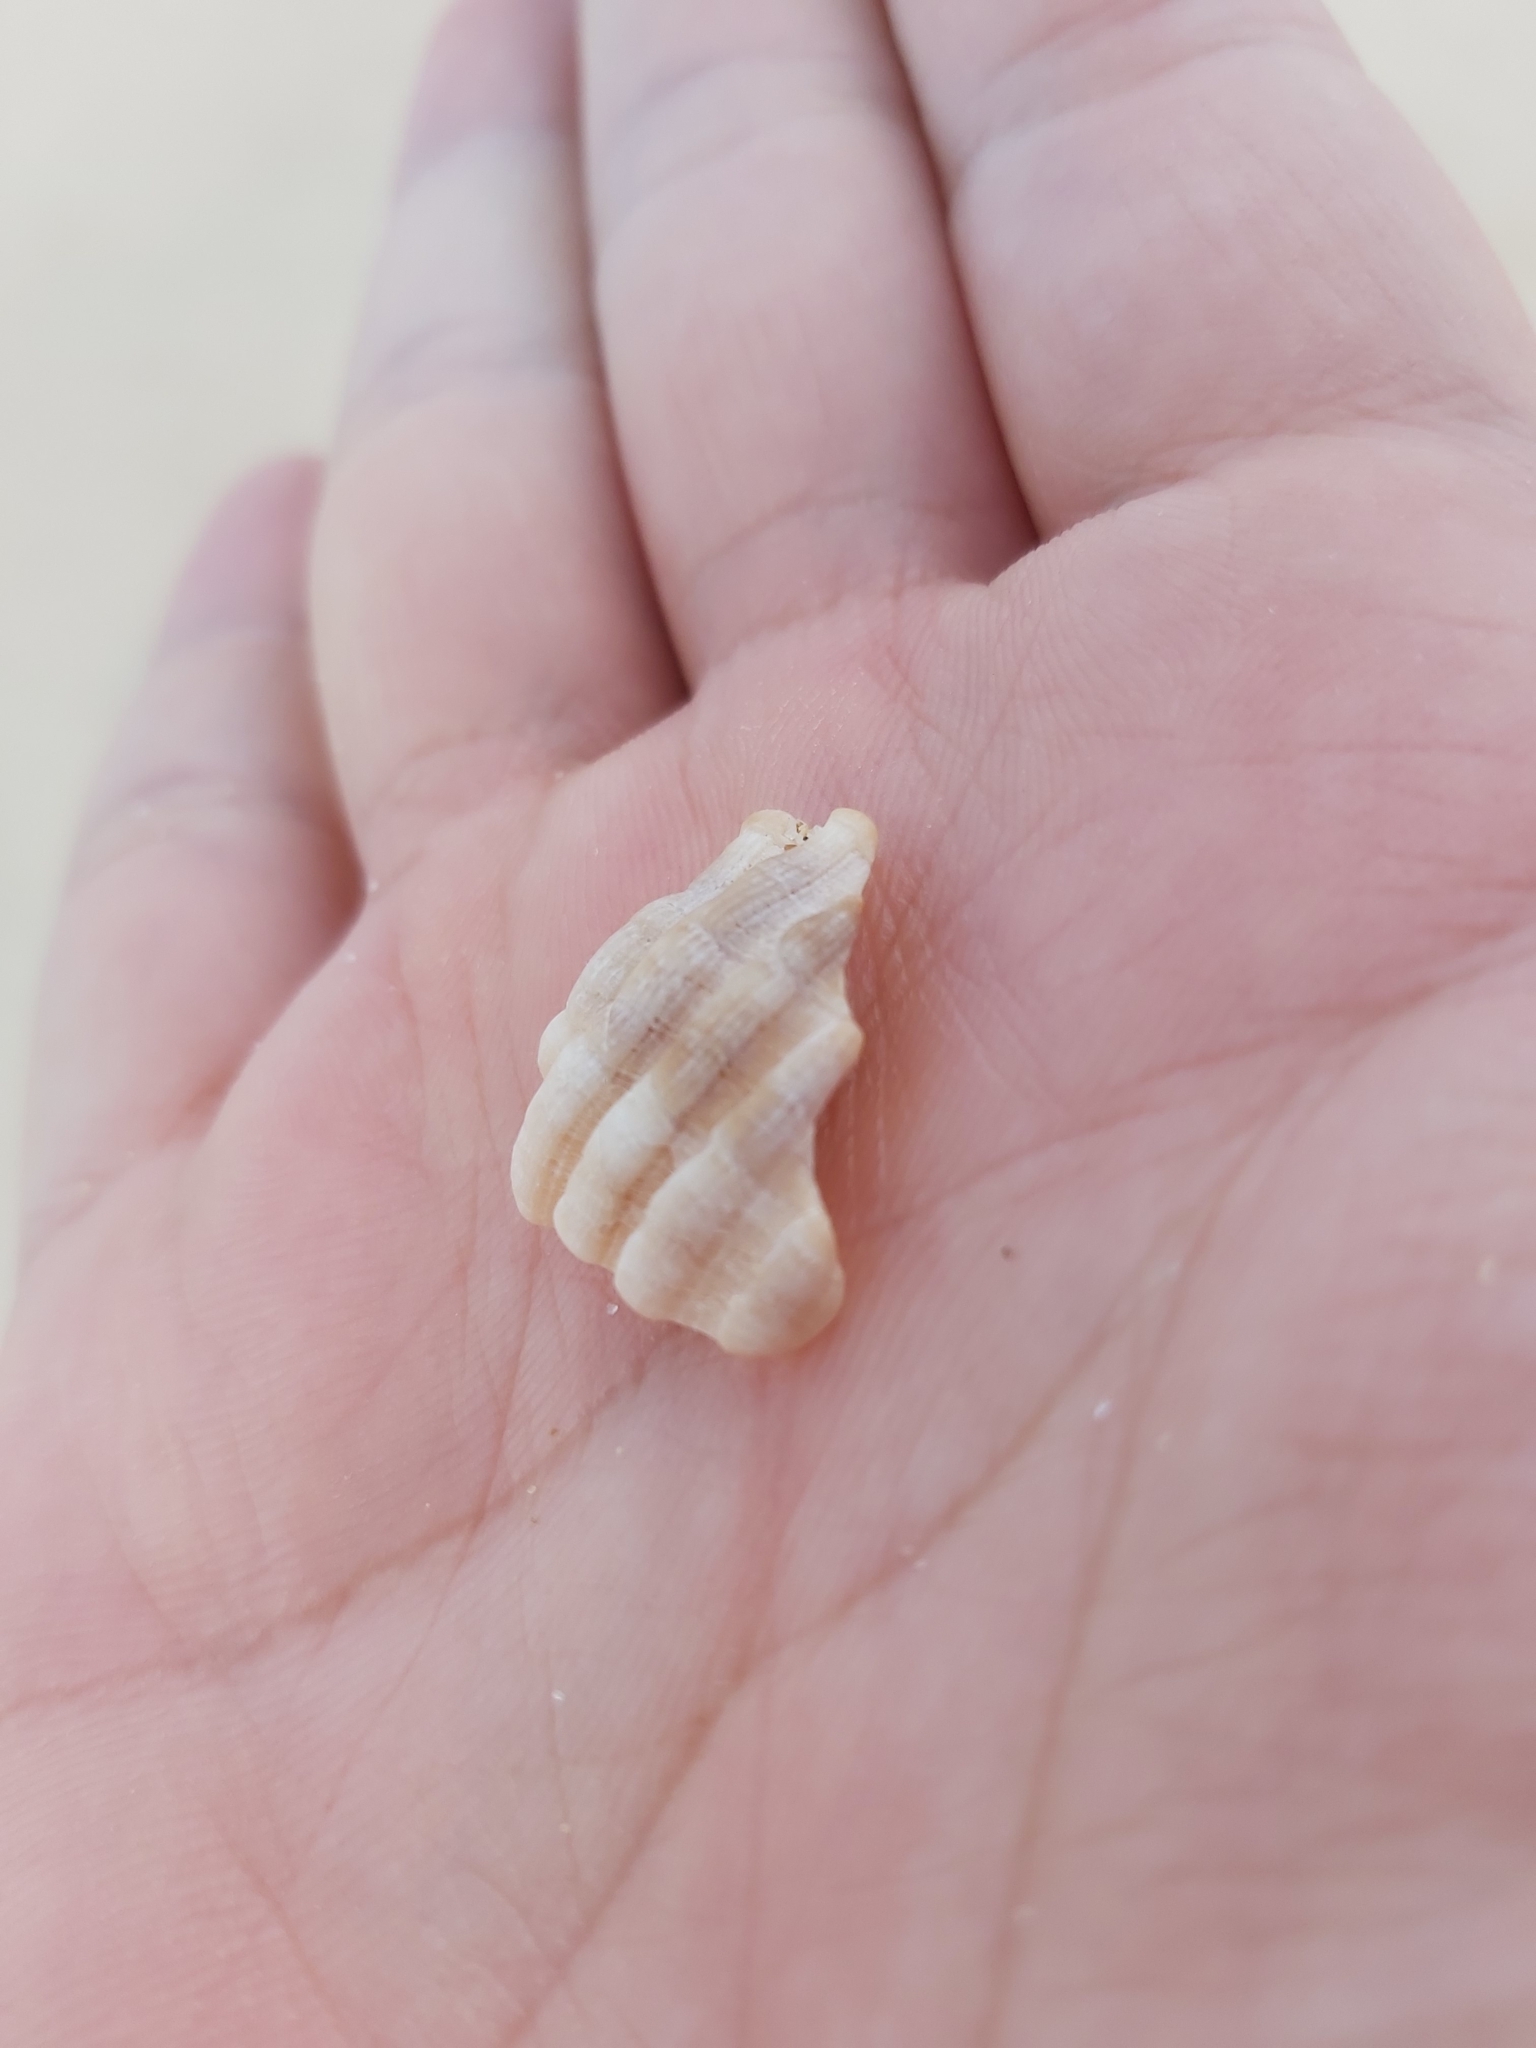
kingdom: Animalia
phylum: Mollusca
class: Gastropoda
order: Neogastropoda
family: Muricidae
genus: Dicathais
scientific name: Dicathais orbita
